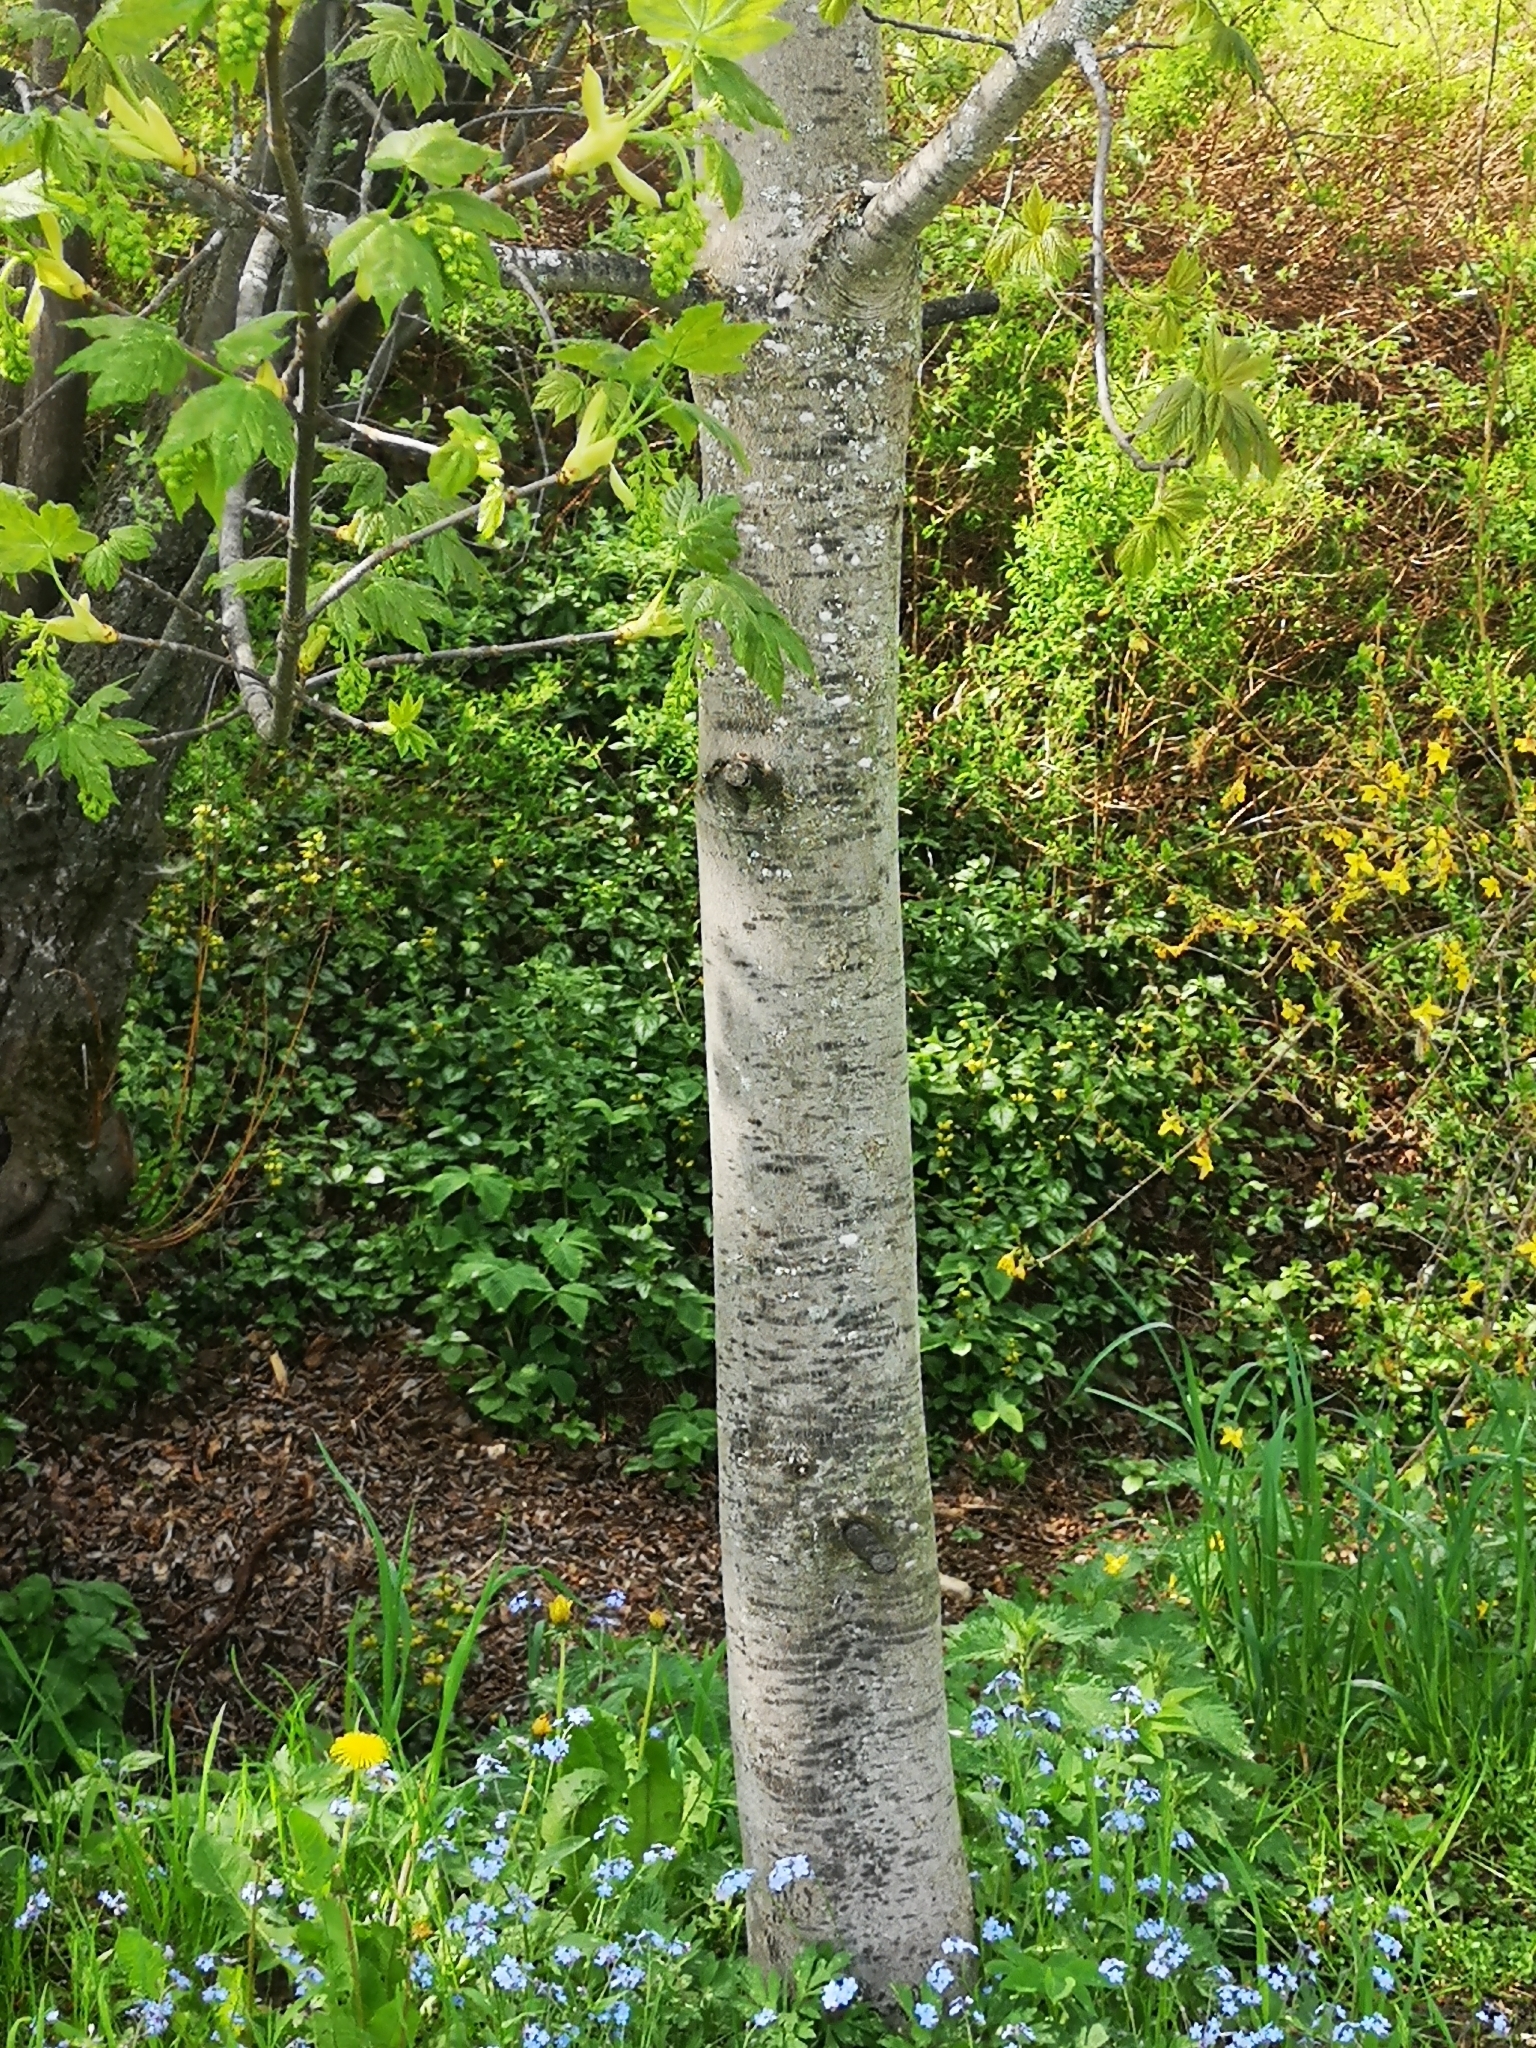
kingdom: Plantae
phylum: Tracheophyta
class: Magnoliopsida
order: Sapindales
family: Sapindaceae
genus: Acer
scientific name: Acer pseudoplatanus
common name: Sycamore
